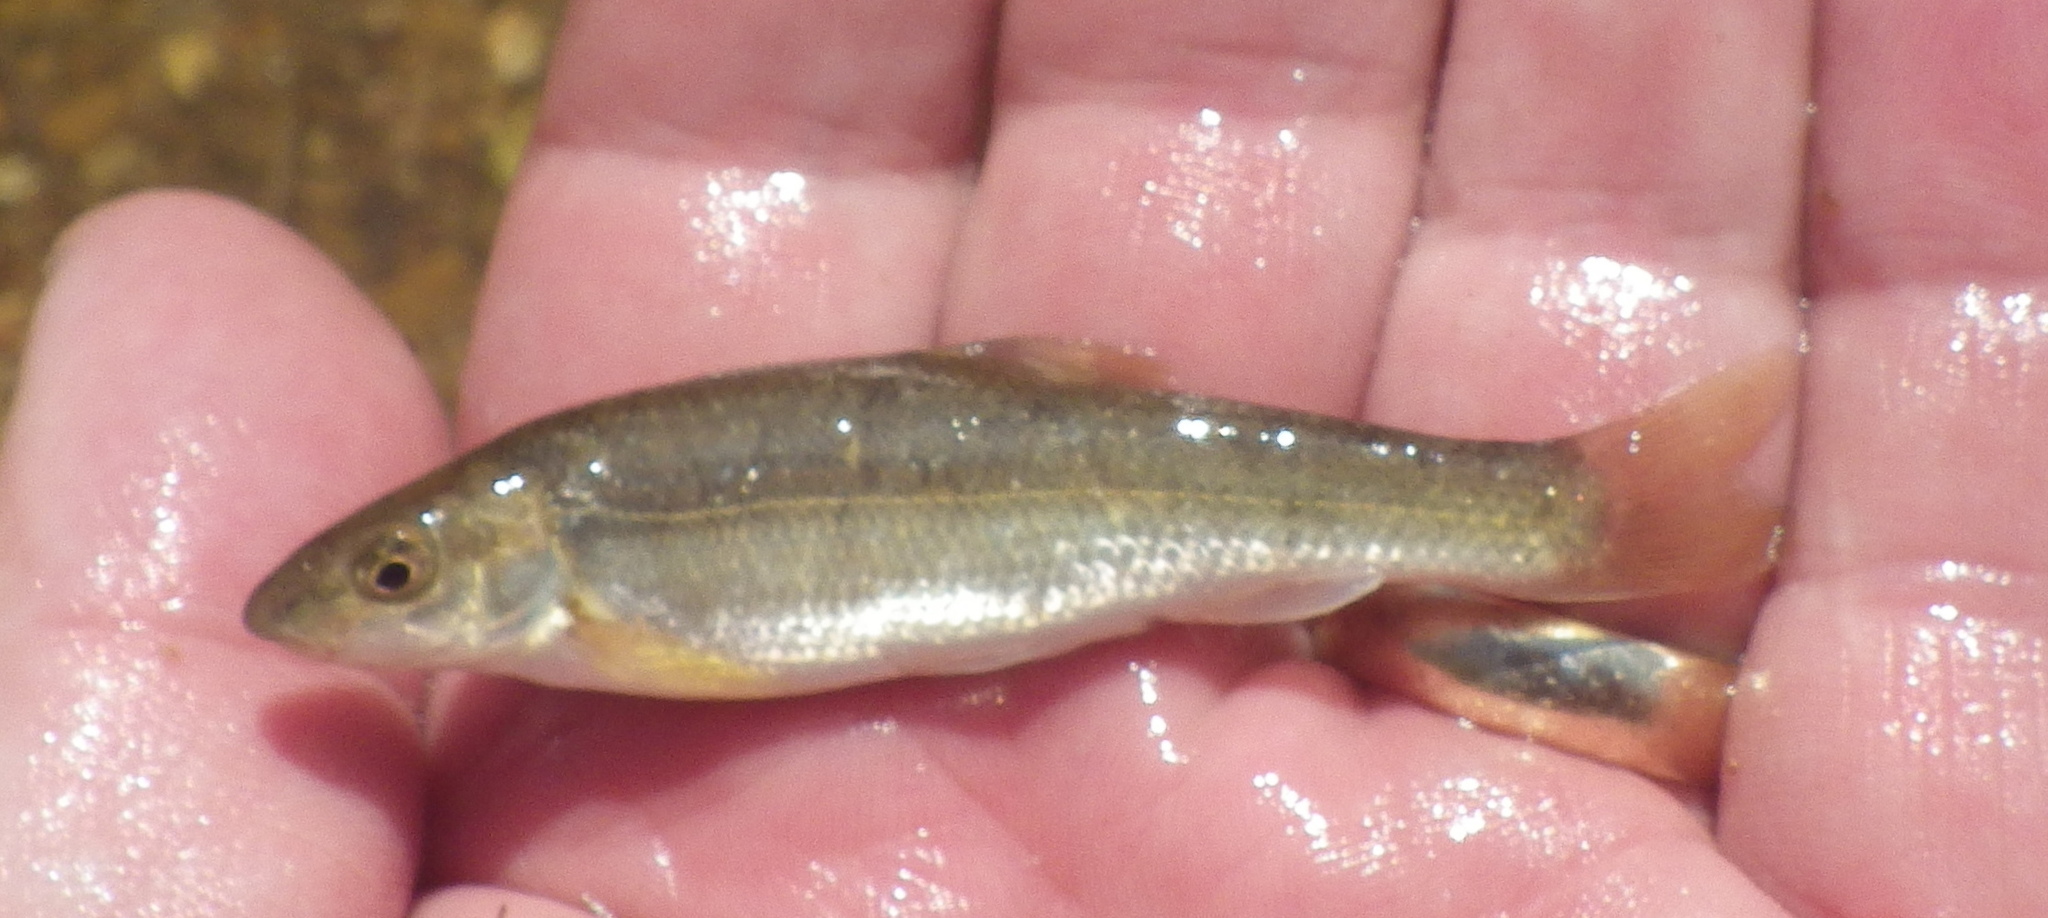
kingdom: Animalia
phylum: Chordata
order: Cypriniformes
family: Cyprinidae
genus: Campostoma
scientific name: Campostoma anomalum
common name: Central stoneroller
